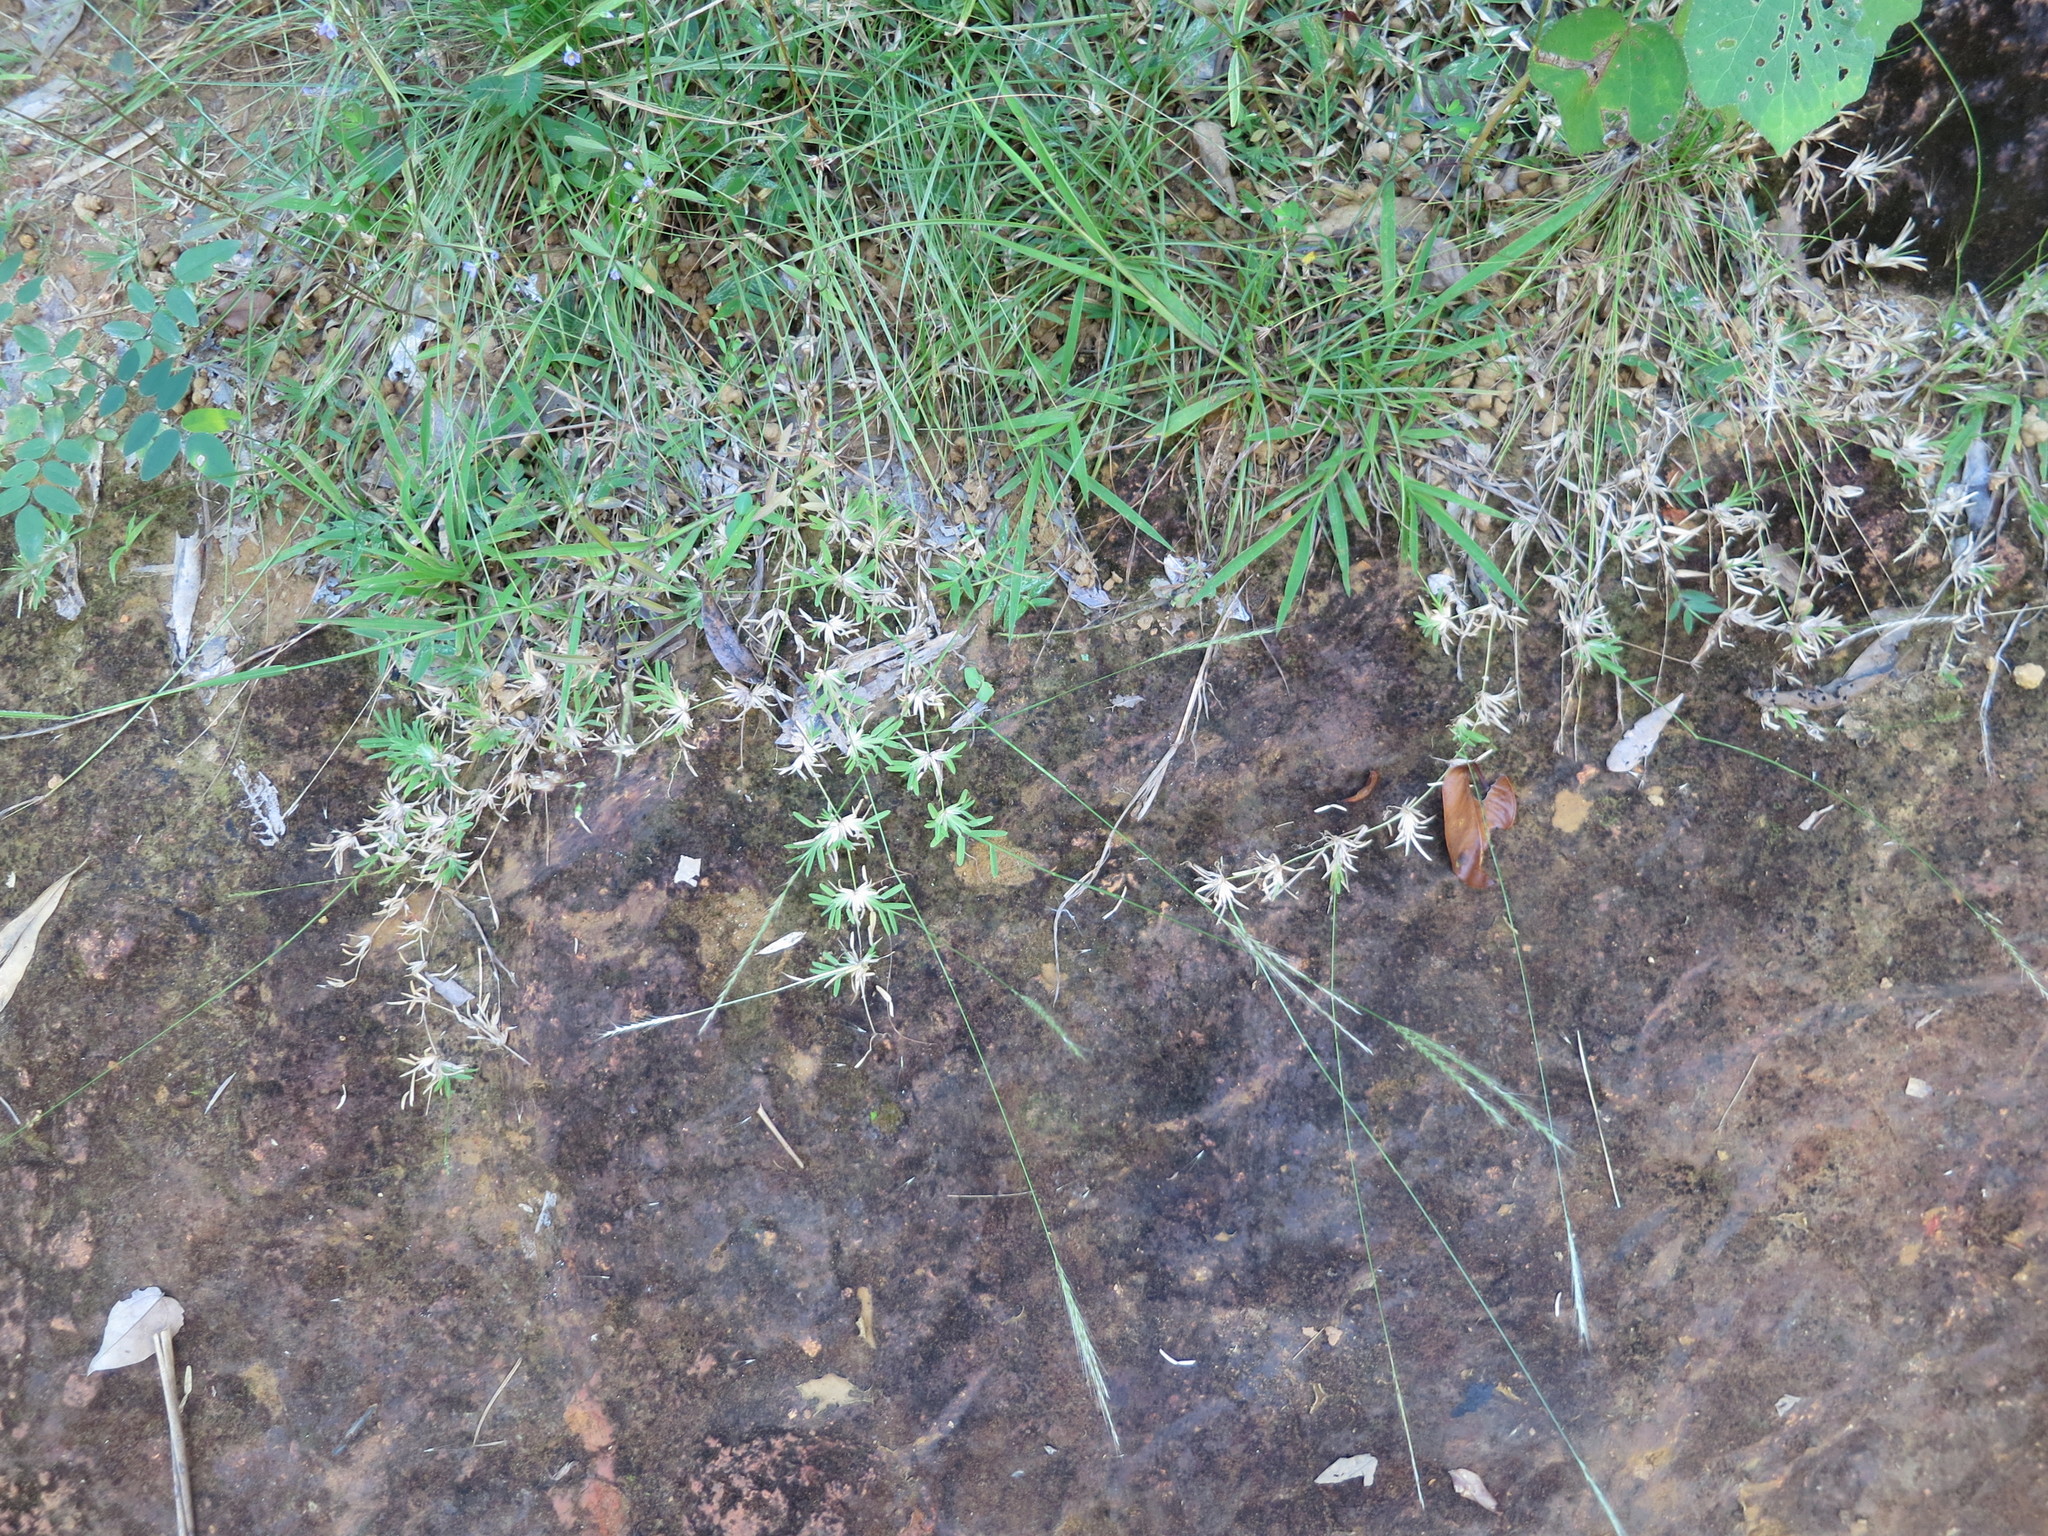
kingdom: Plantae
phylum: Tracheophyta
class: Liliopsida
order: Poales
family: Poaceae
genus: Neostapfiella
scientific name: Neostapfiella perrieri
